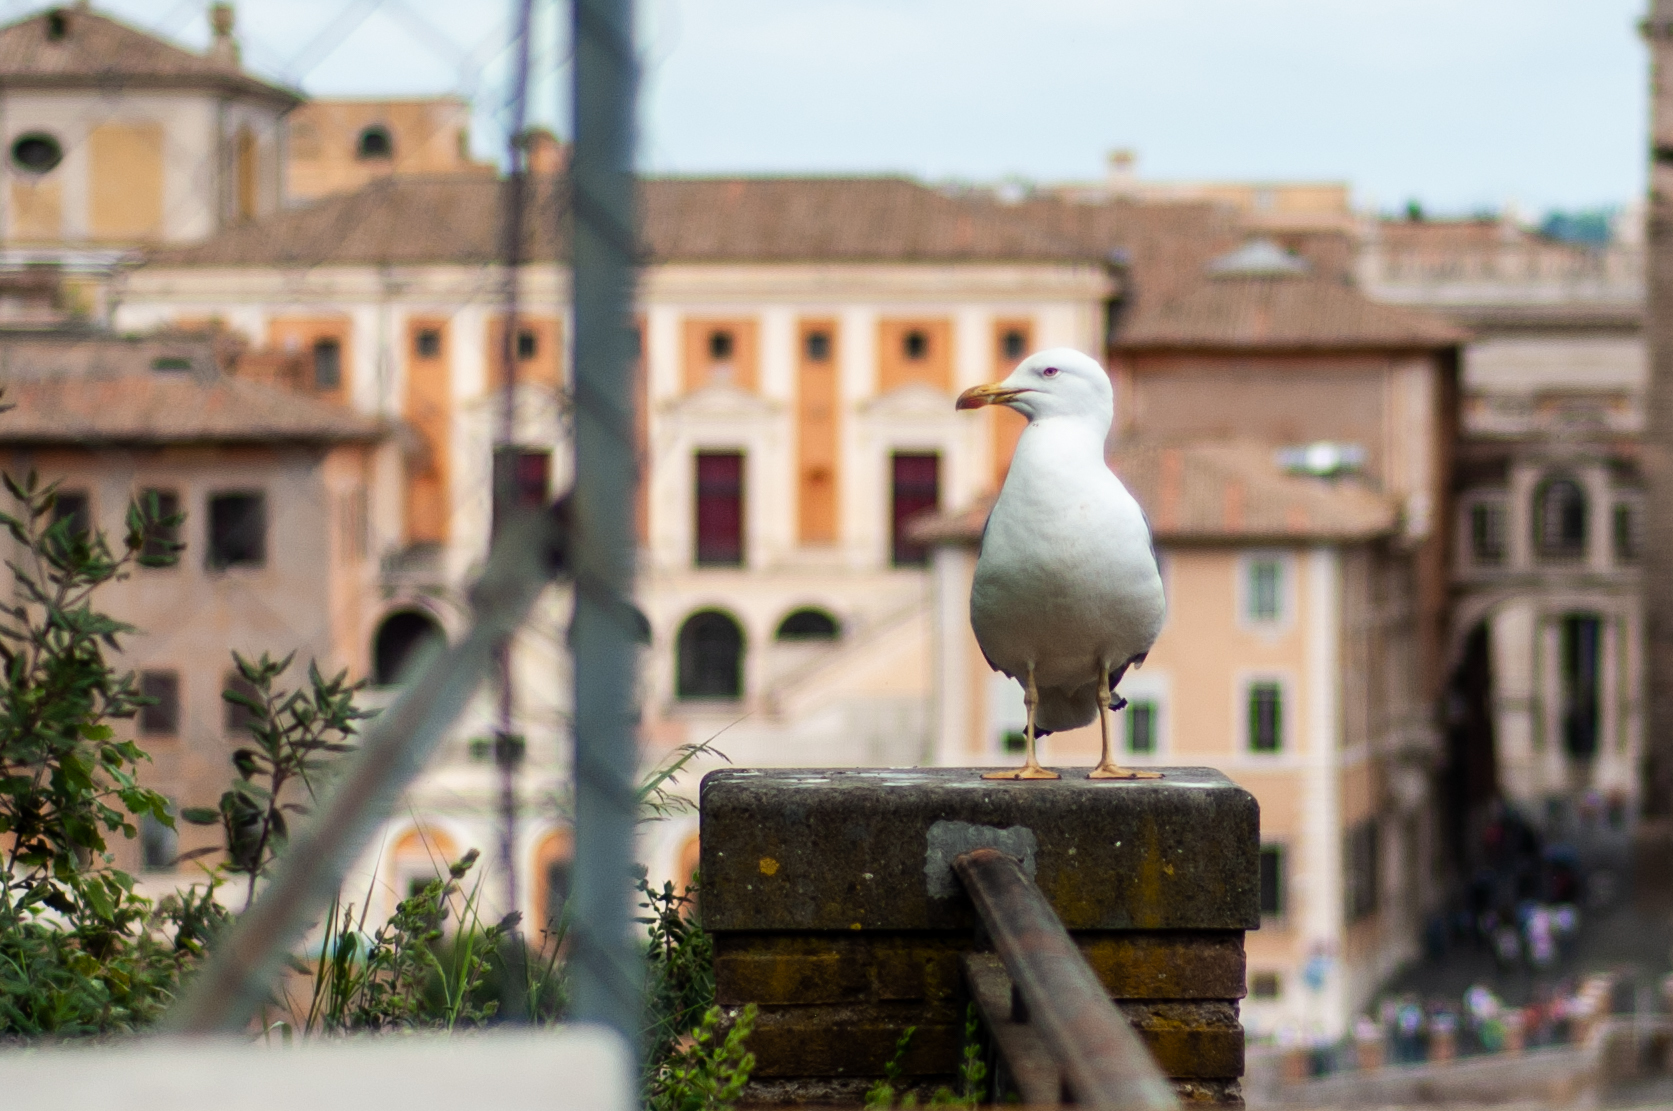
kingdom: Animalia
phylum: Chordata
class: Aves
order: Charadriiformes
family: Laridae
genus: Larus
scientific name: Larus michahellis
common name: Yellow-legged gull
